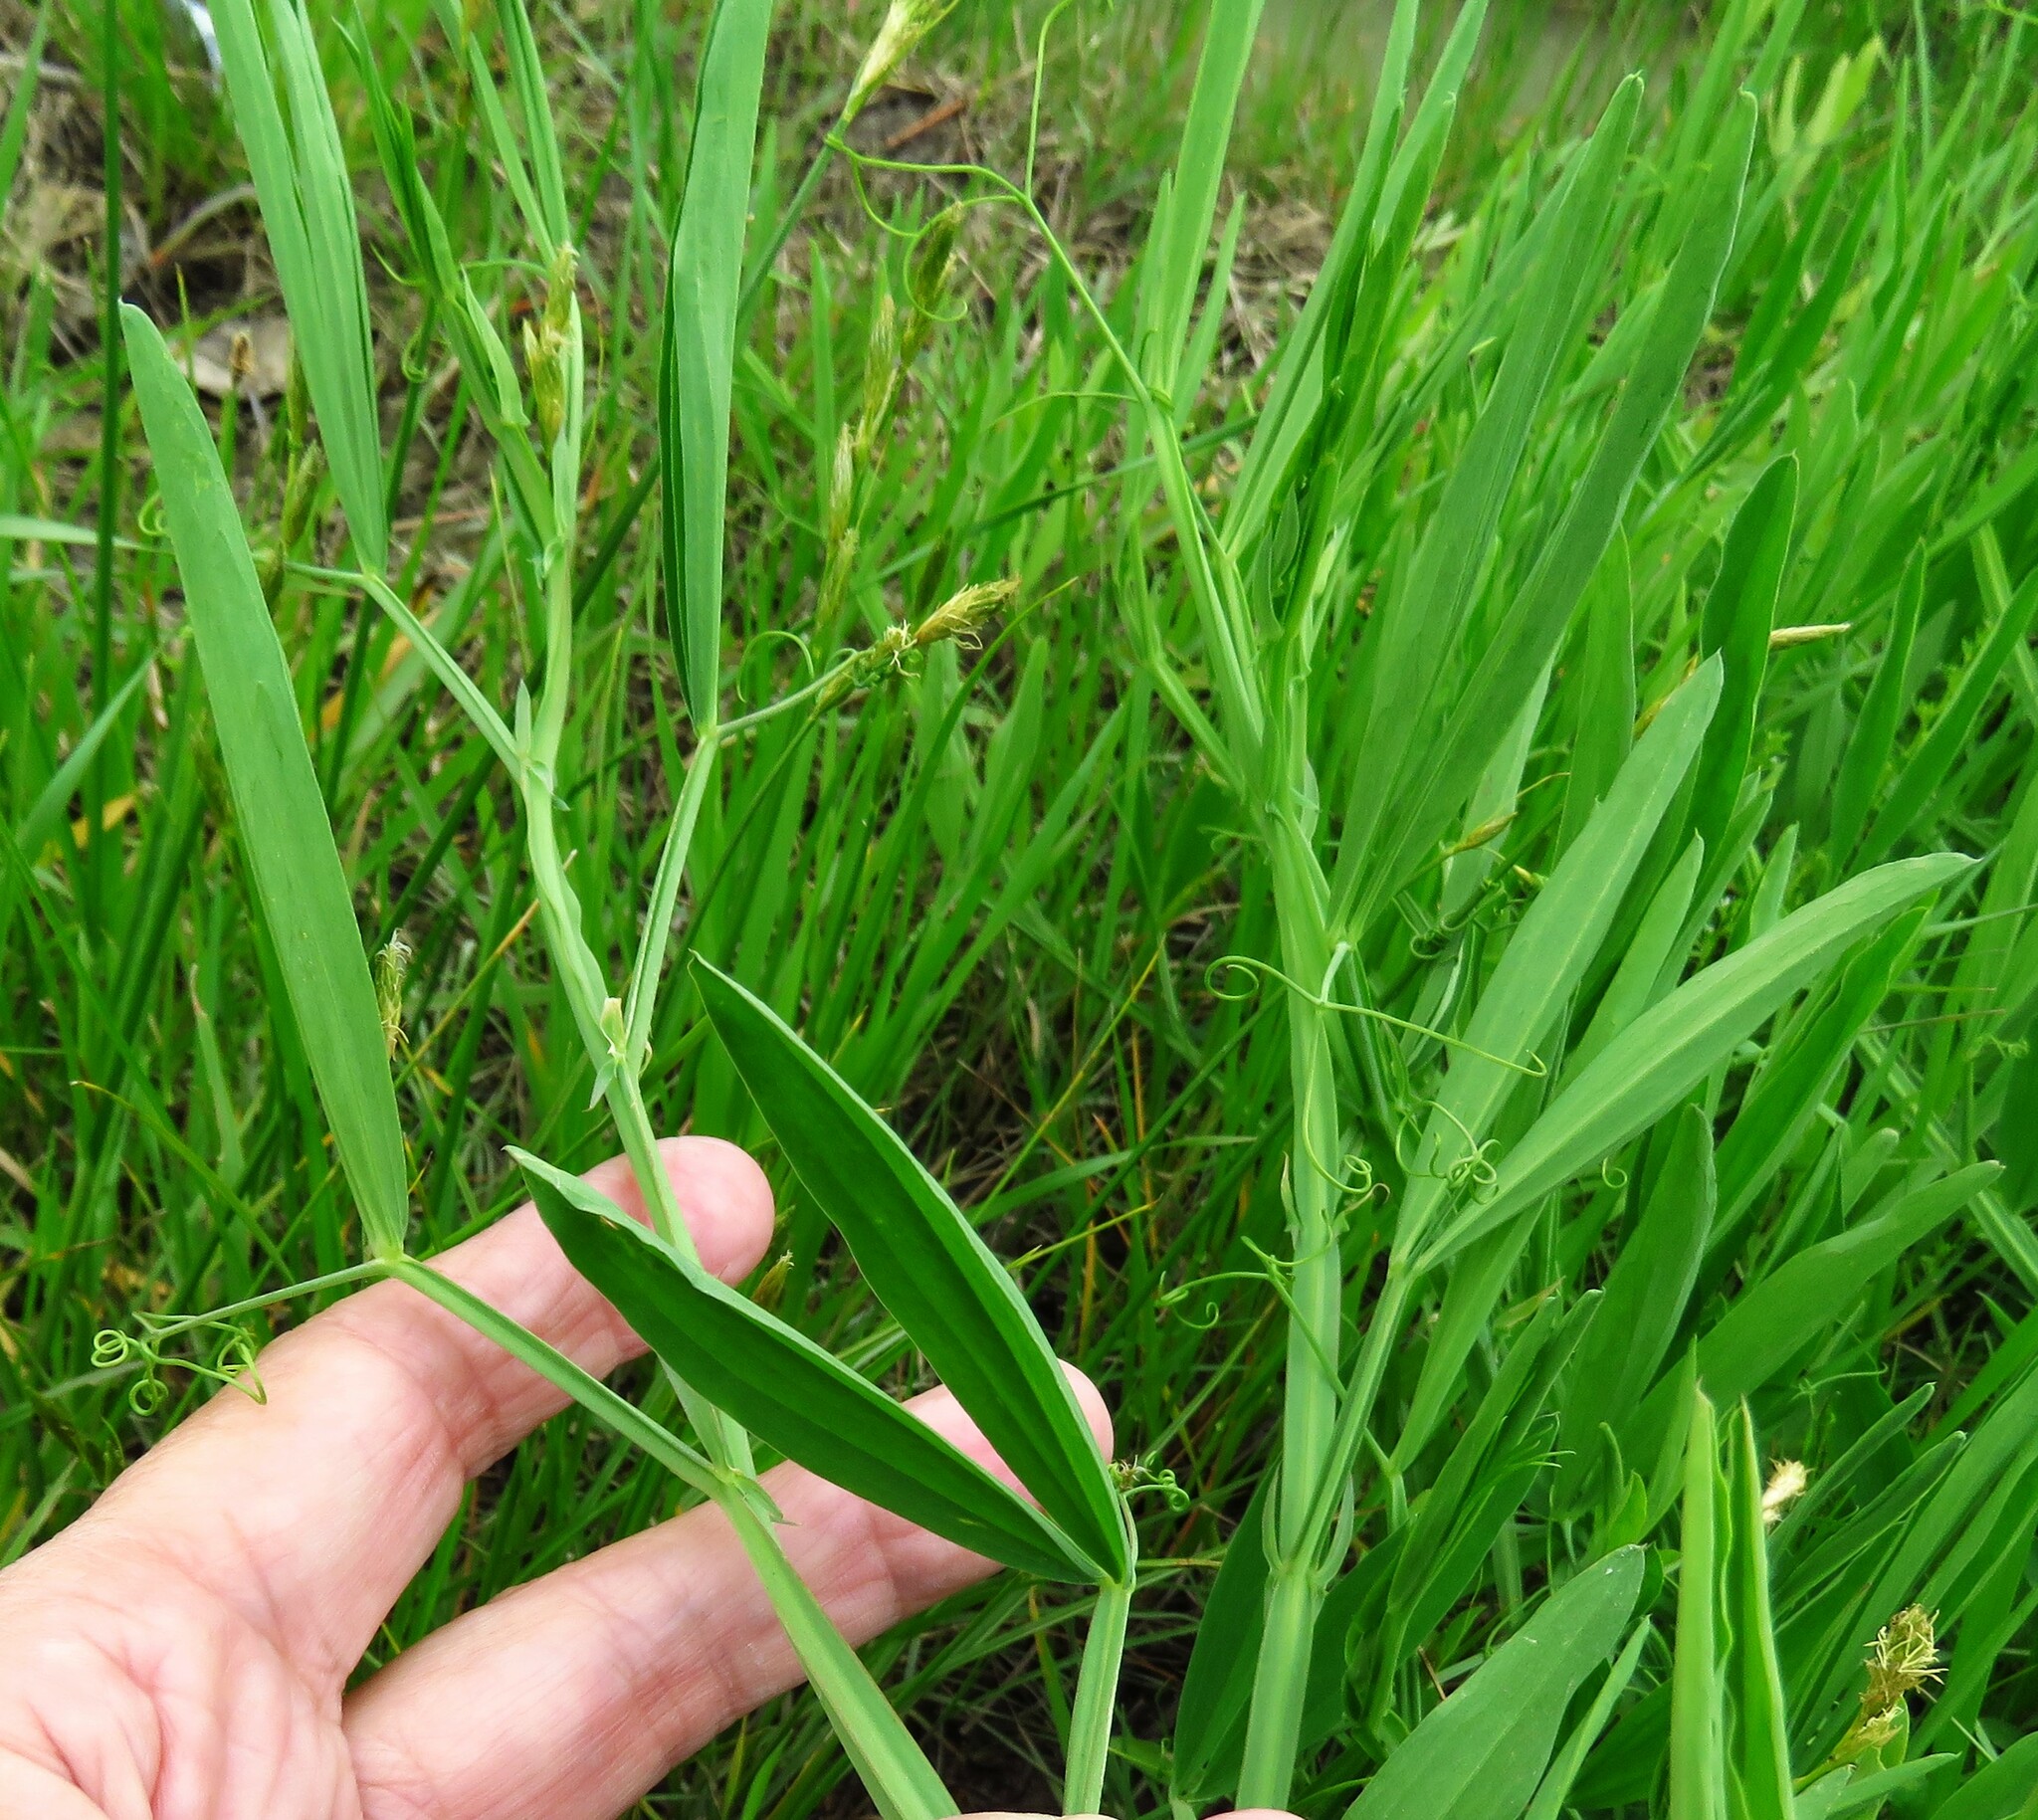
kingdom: Plantae
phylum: Tracheophyta
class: Magnoliopsida
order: Fabales
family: Fabaceae
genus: Lathyrus
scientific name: Lathyrus hirsutus
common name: Hairy vetchling
